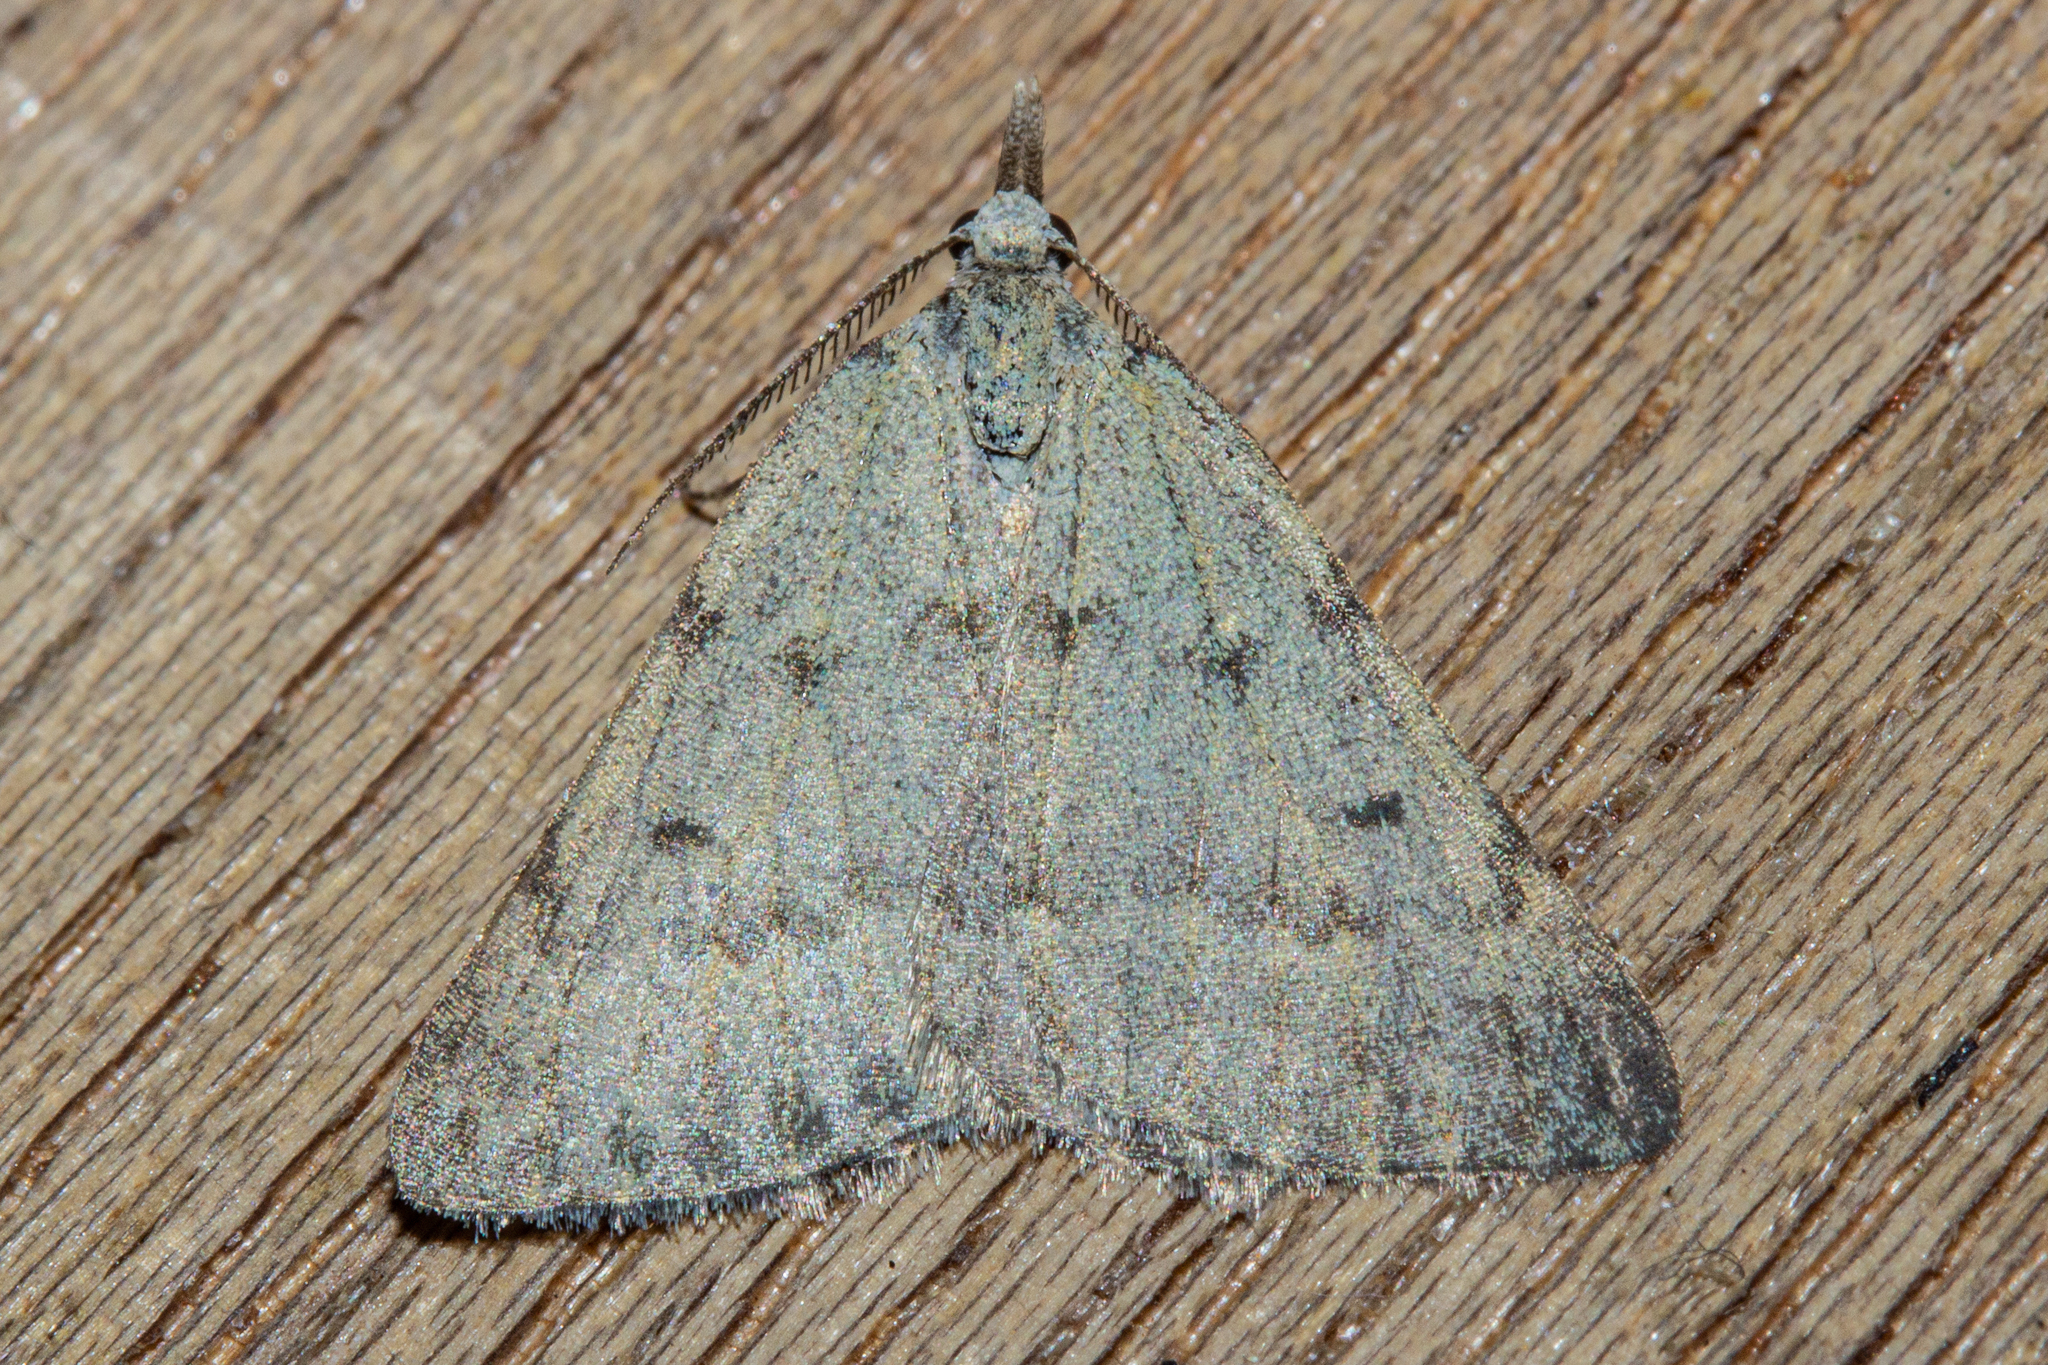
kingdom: Animalia
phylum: Arthropoda
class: Insecta
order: Lepidoptera
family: Geometridae
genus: Dichromodes
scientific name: Dichromodes sphaeriata
